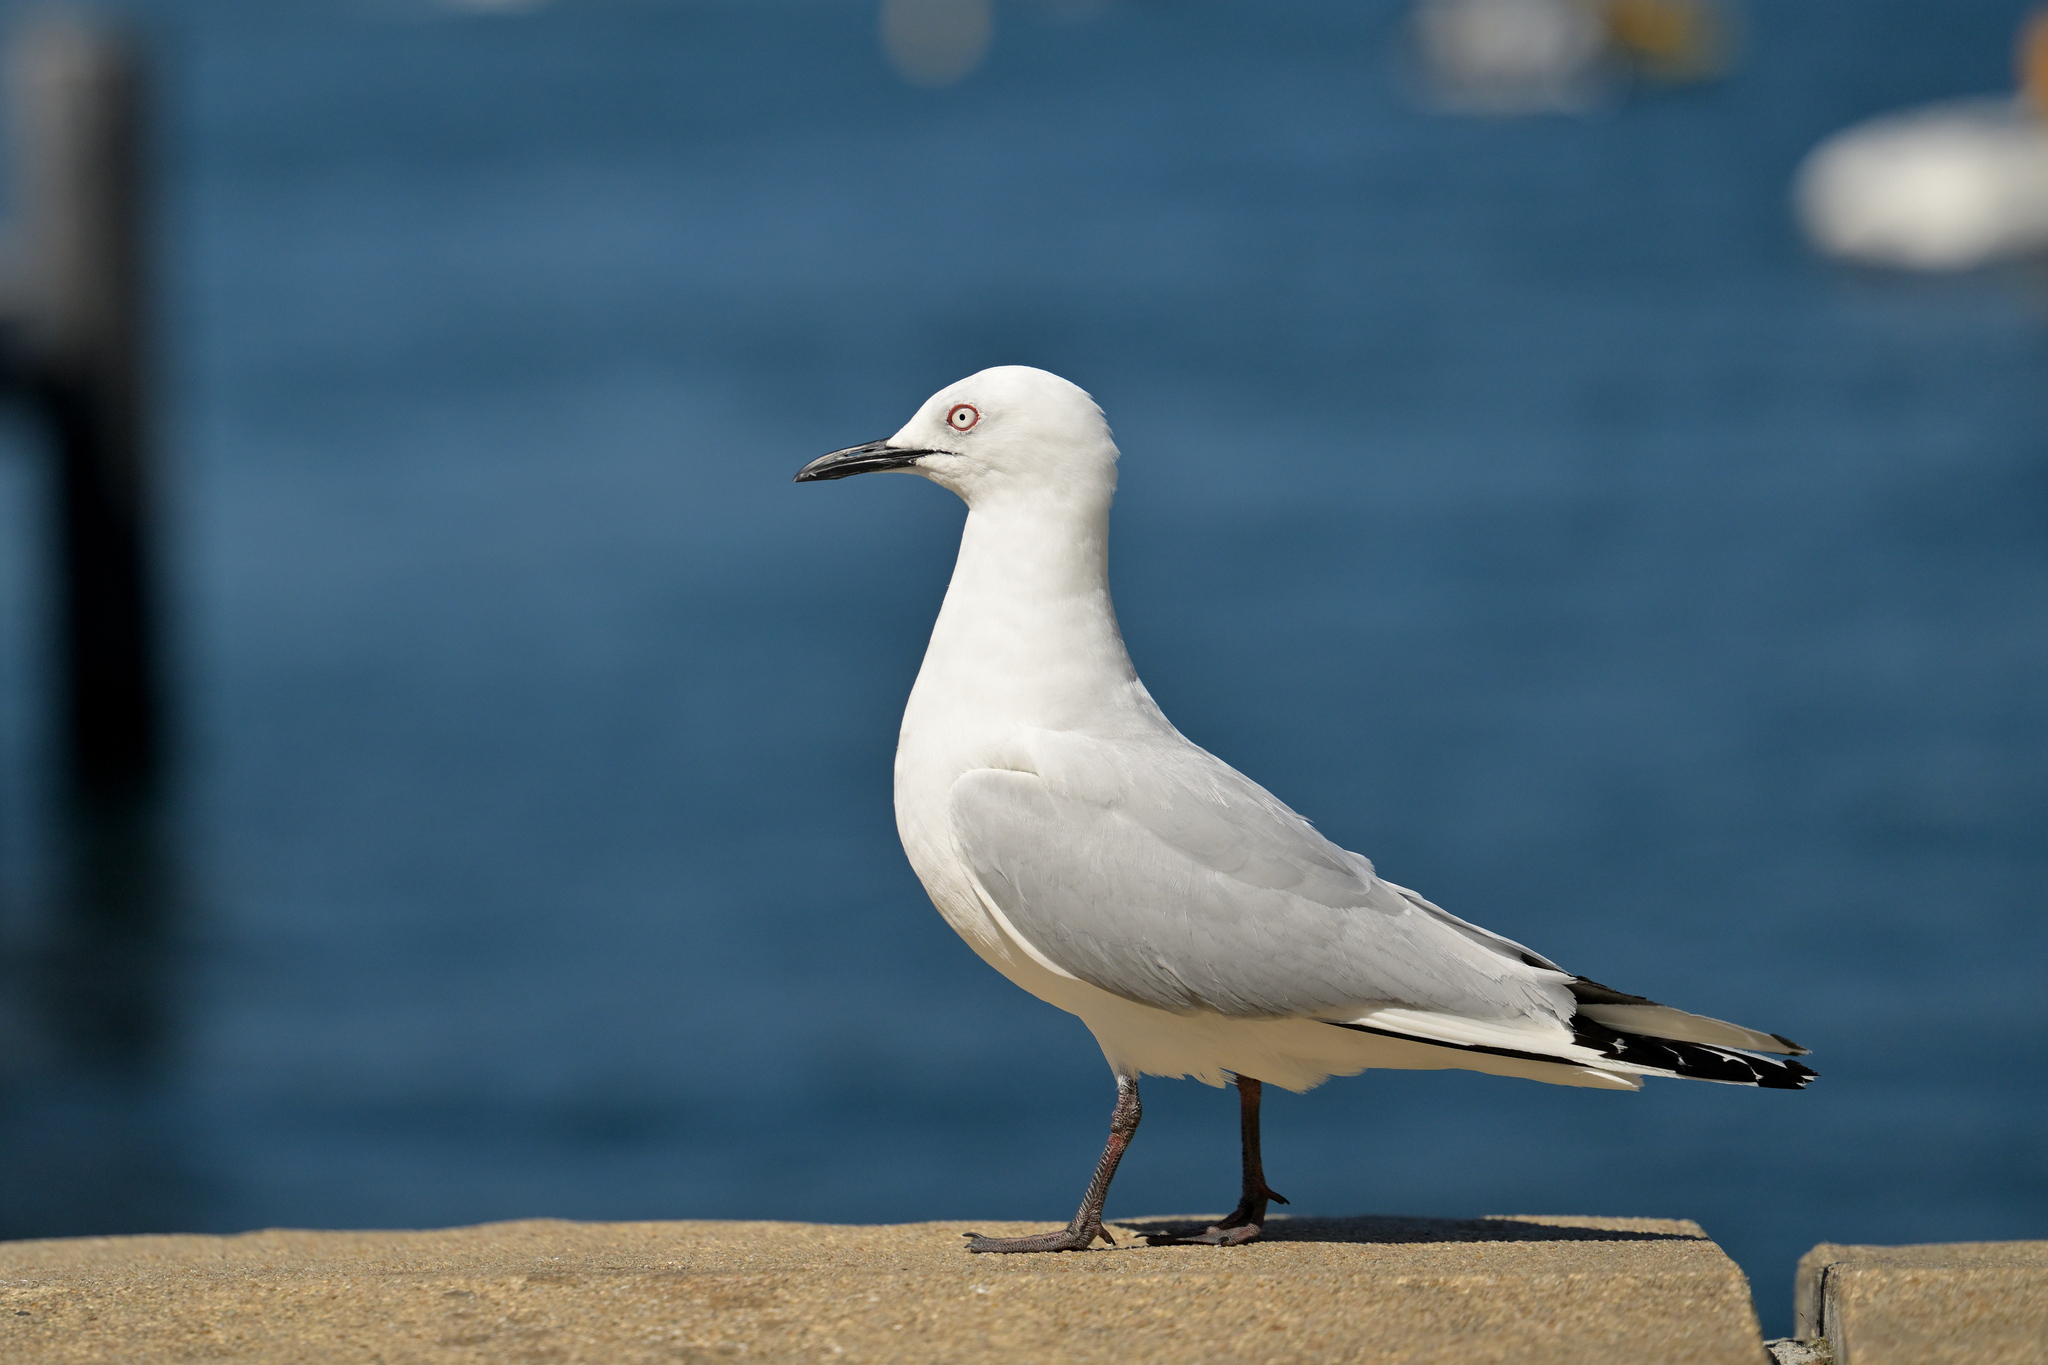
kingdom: Animalia
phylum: Chordata
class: Aves
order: Charadriiformes
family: Laridae
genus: Chroicocephalus
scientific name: Chroicocephalus bulleri
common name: Black-billed gull
